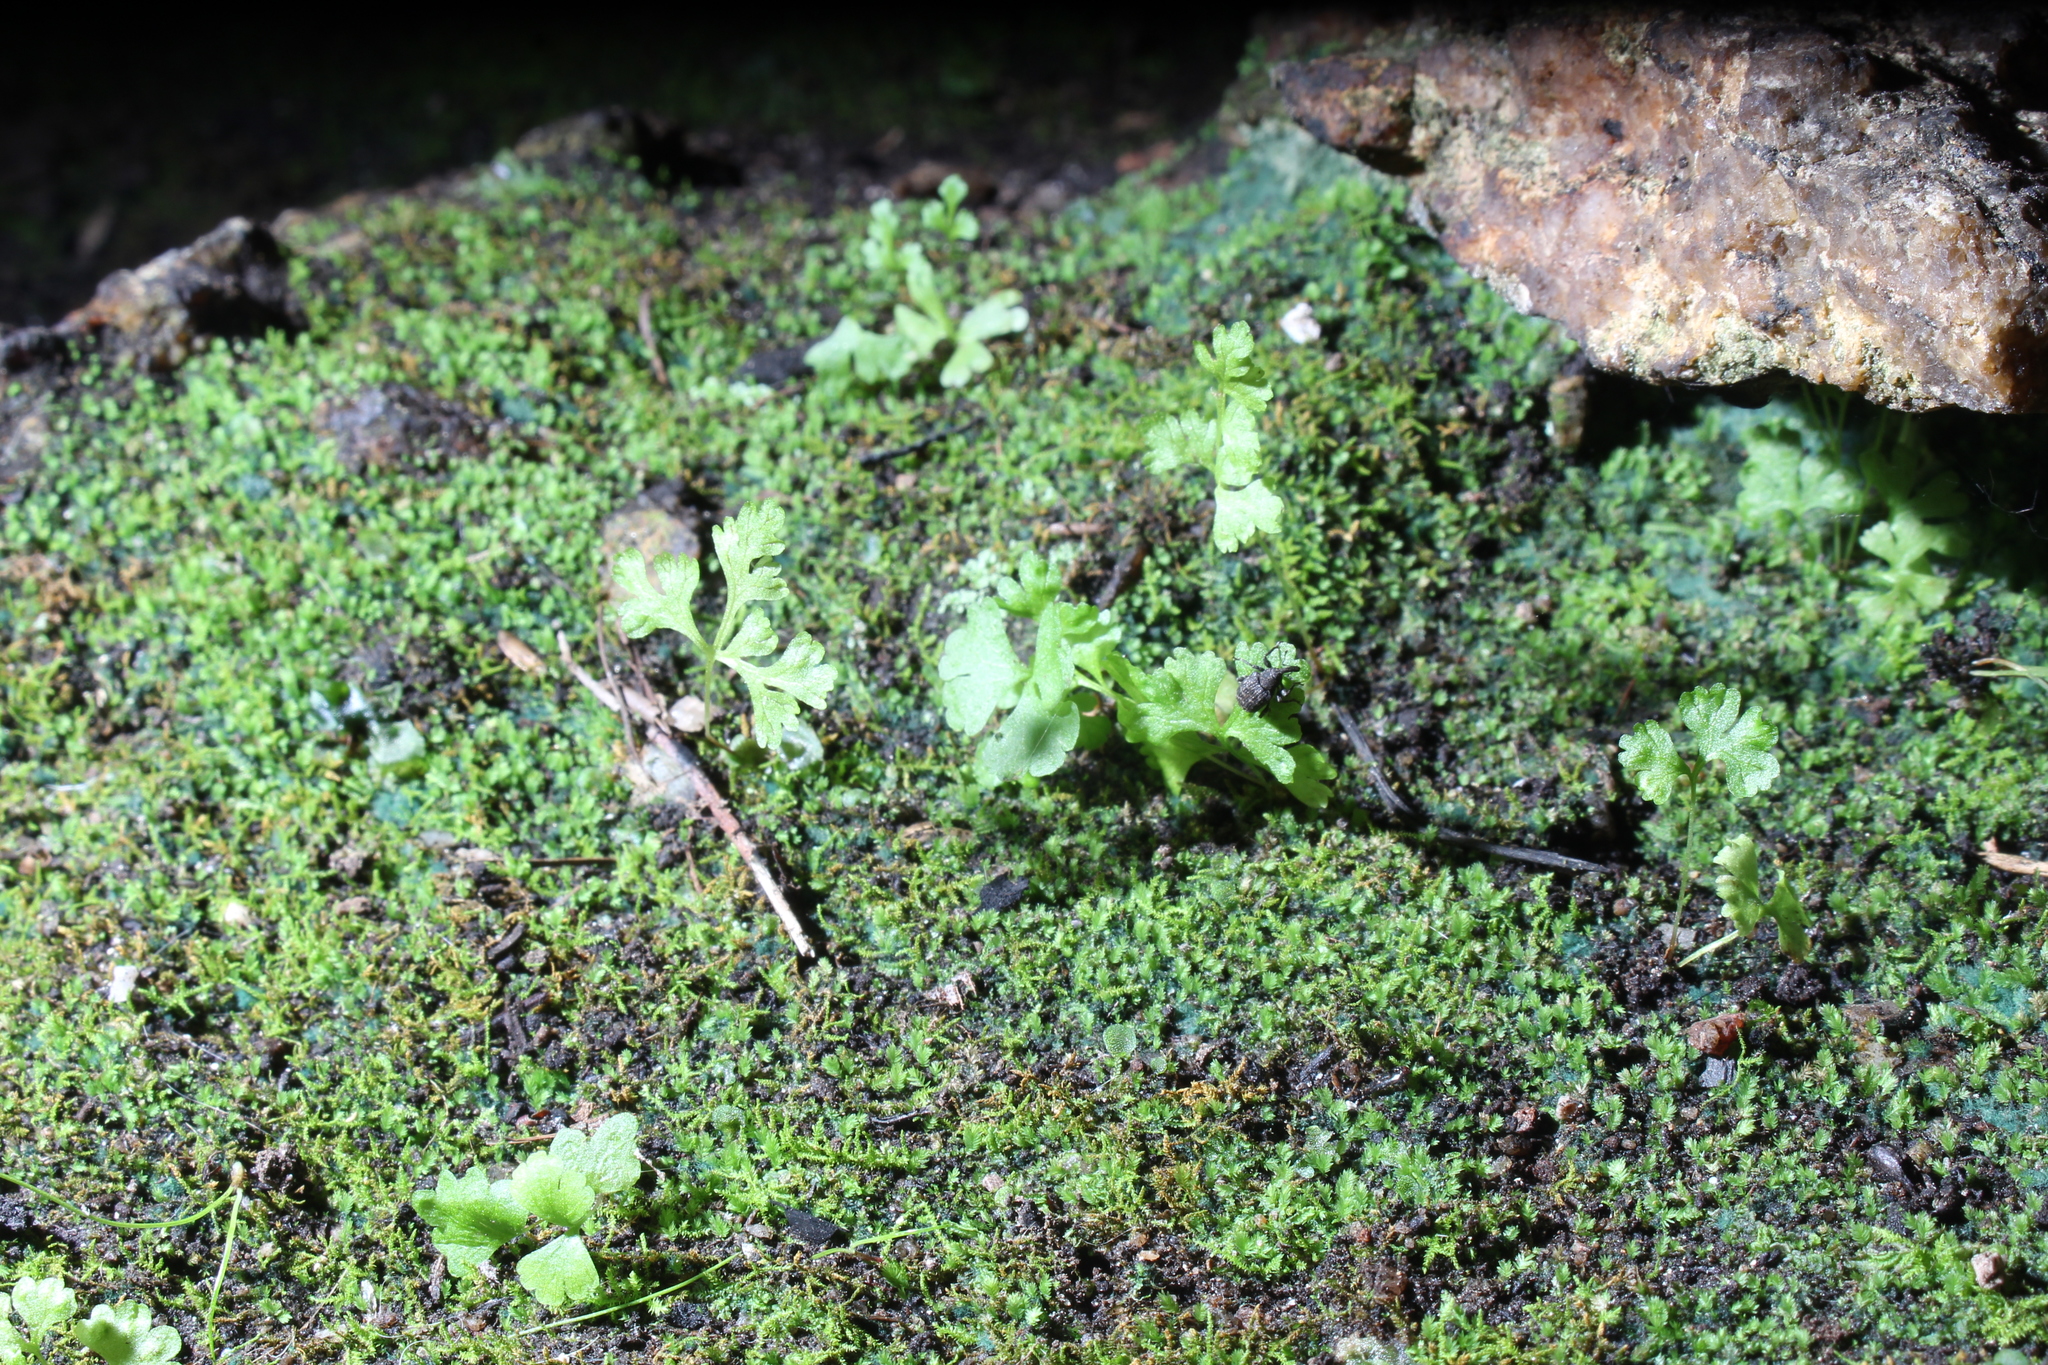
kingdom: Plantae
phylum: Tracheophyta
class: Polypodiopsida
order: Polypodiales
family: Pteridaceae
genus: Anogramma
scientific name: Anogramma leptophylla
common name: Jersey fern
